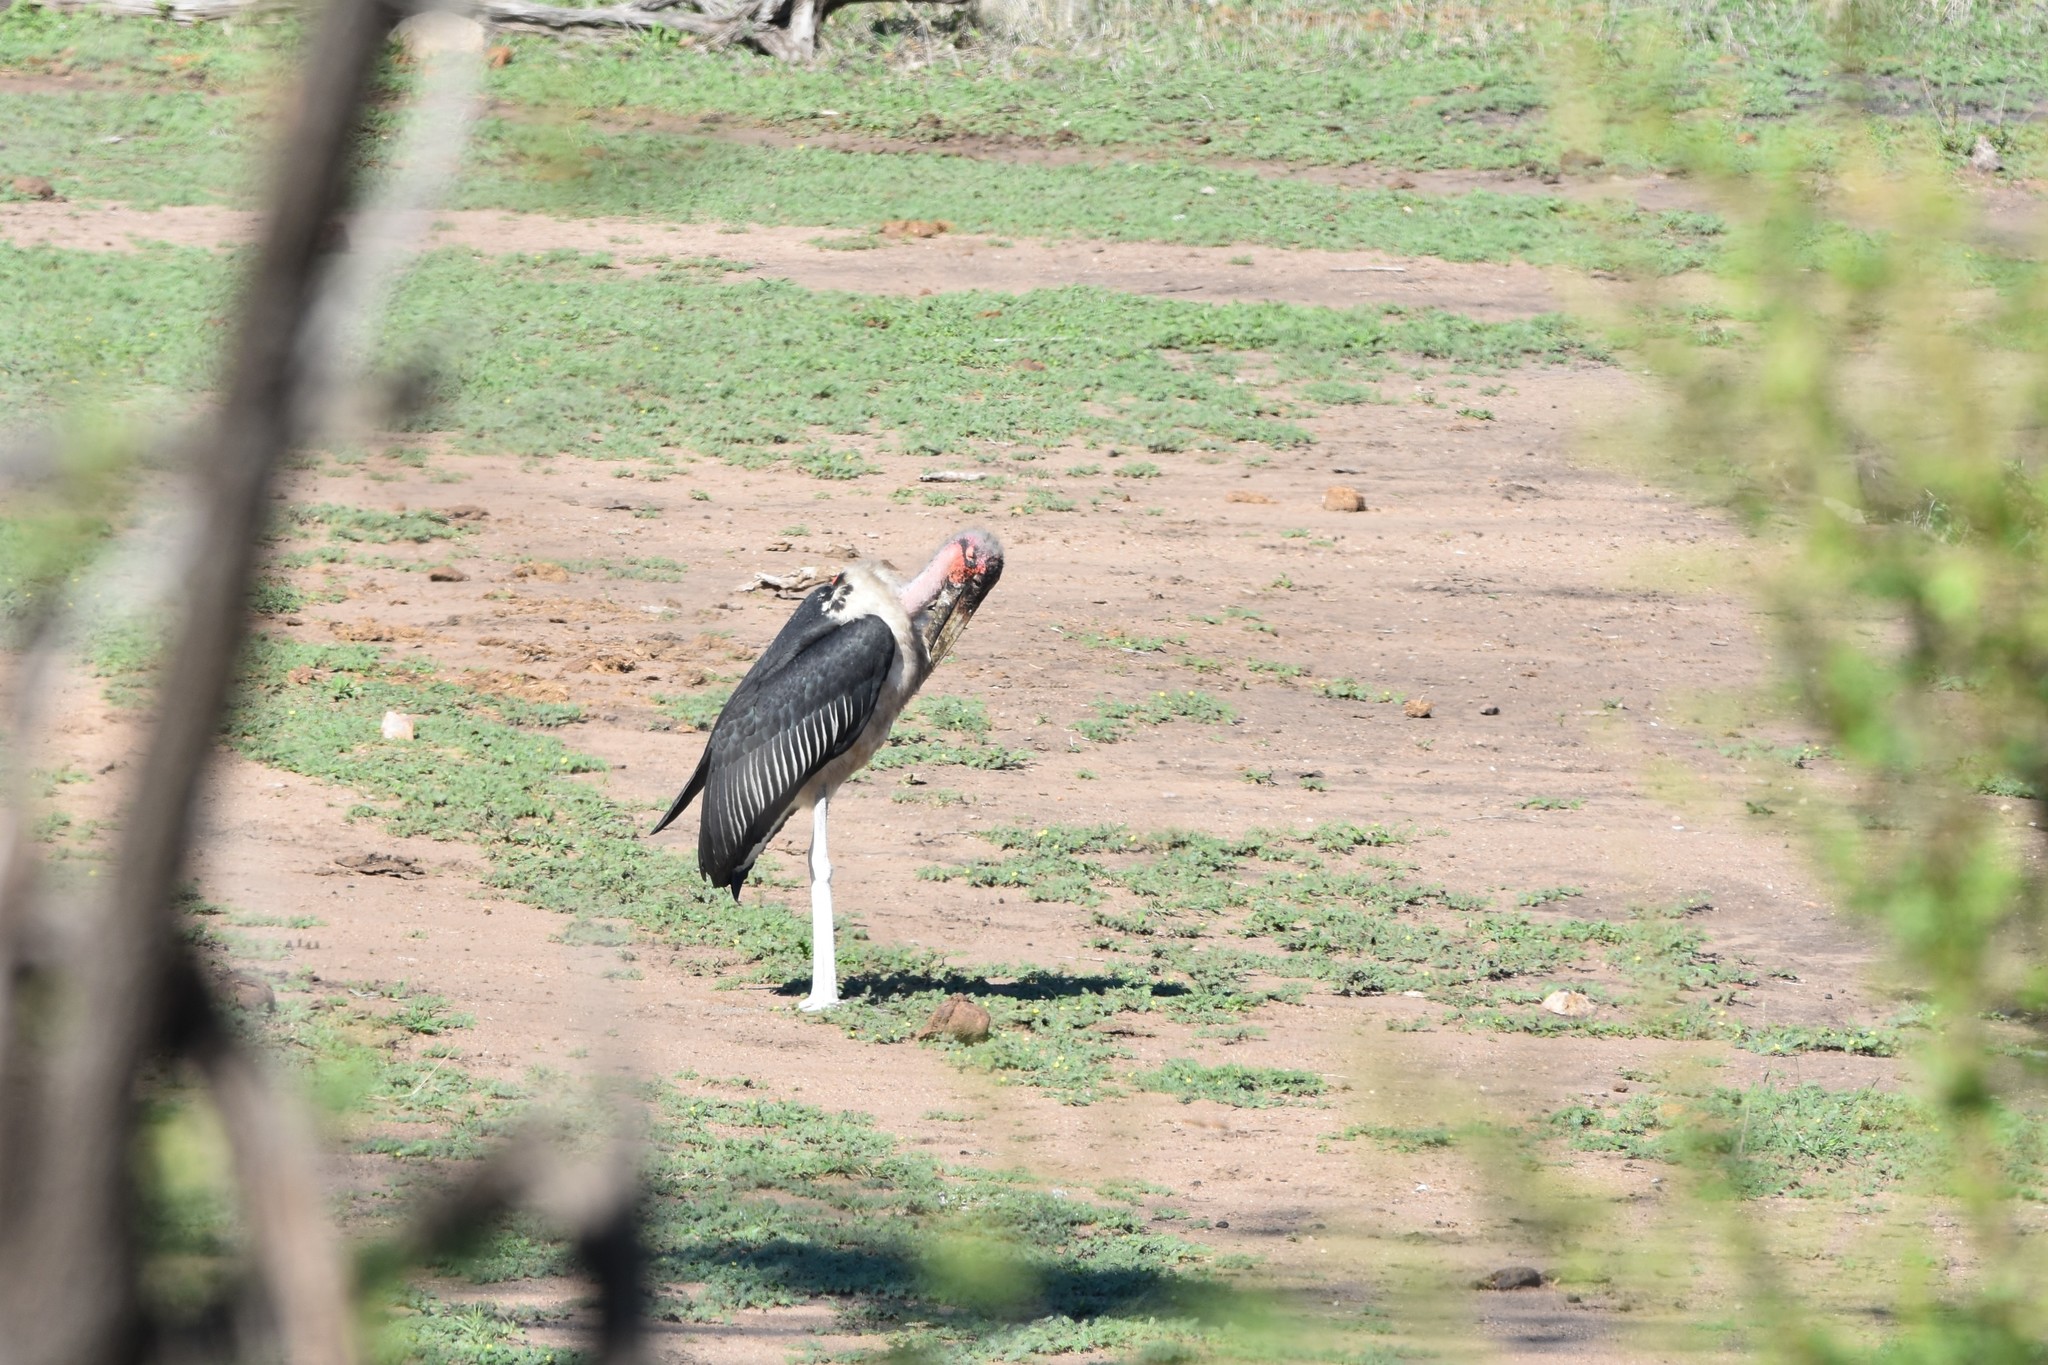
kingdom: Animalia
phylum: Chordata
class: Aves
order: Ciconiiformes
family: Ciconiidae
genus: Leptoptilos
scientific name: Leptoptilos crumenifer
